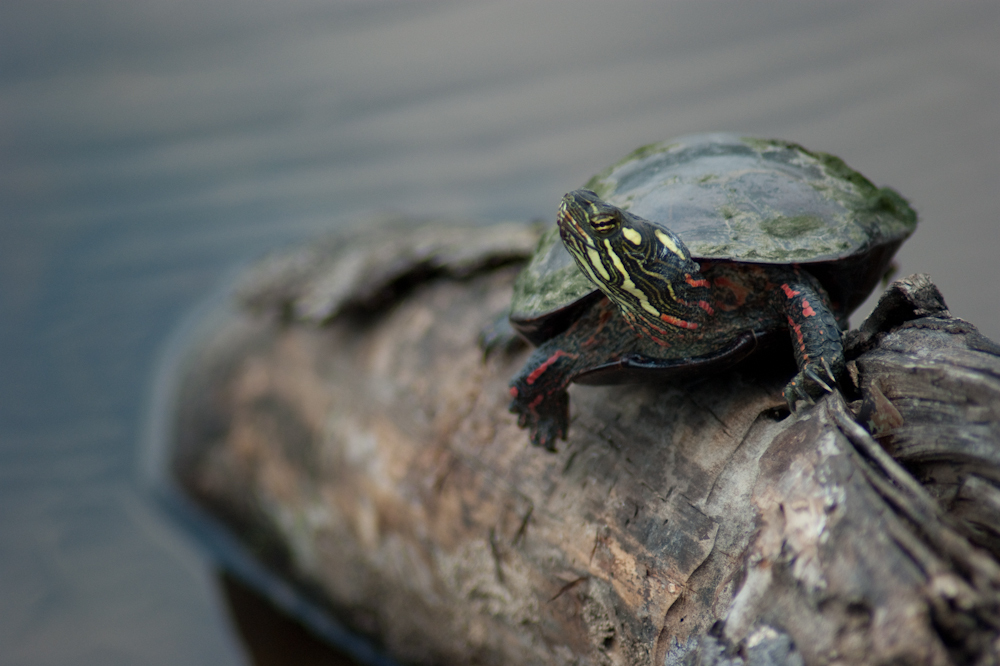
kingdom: Animalia
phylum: Chordata
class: Testudines
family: Emydidae
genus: Chrysemys
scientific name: Chrysemys picta
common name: Painted turtle
